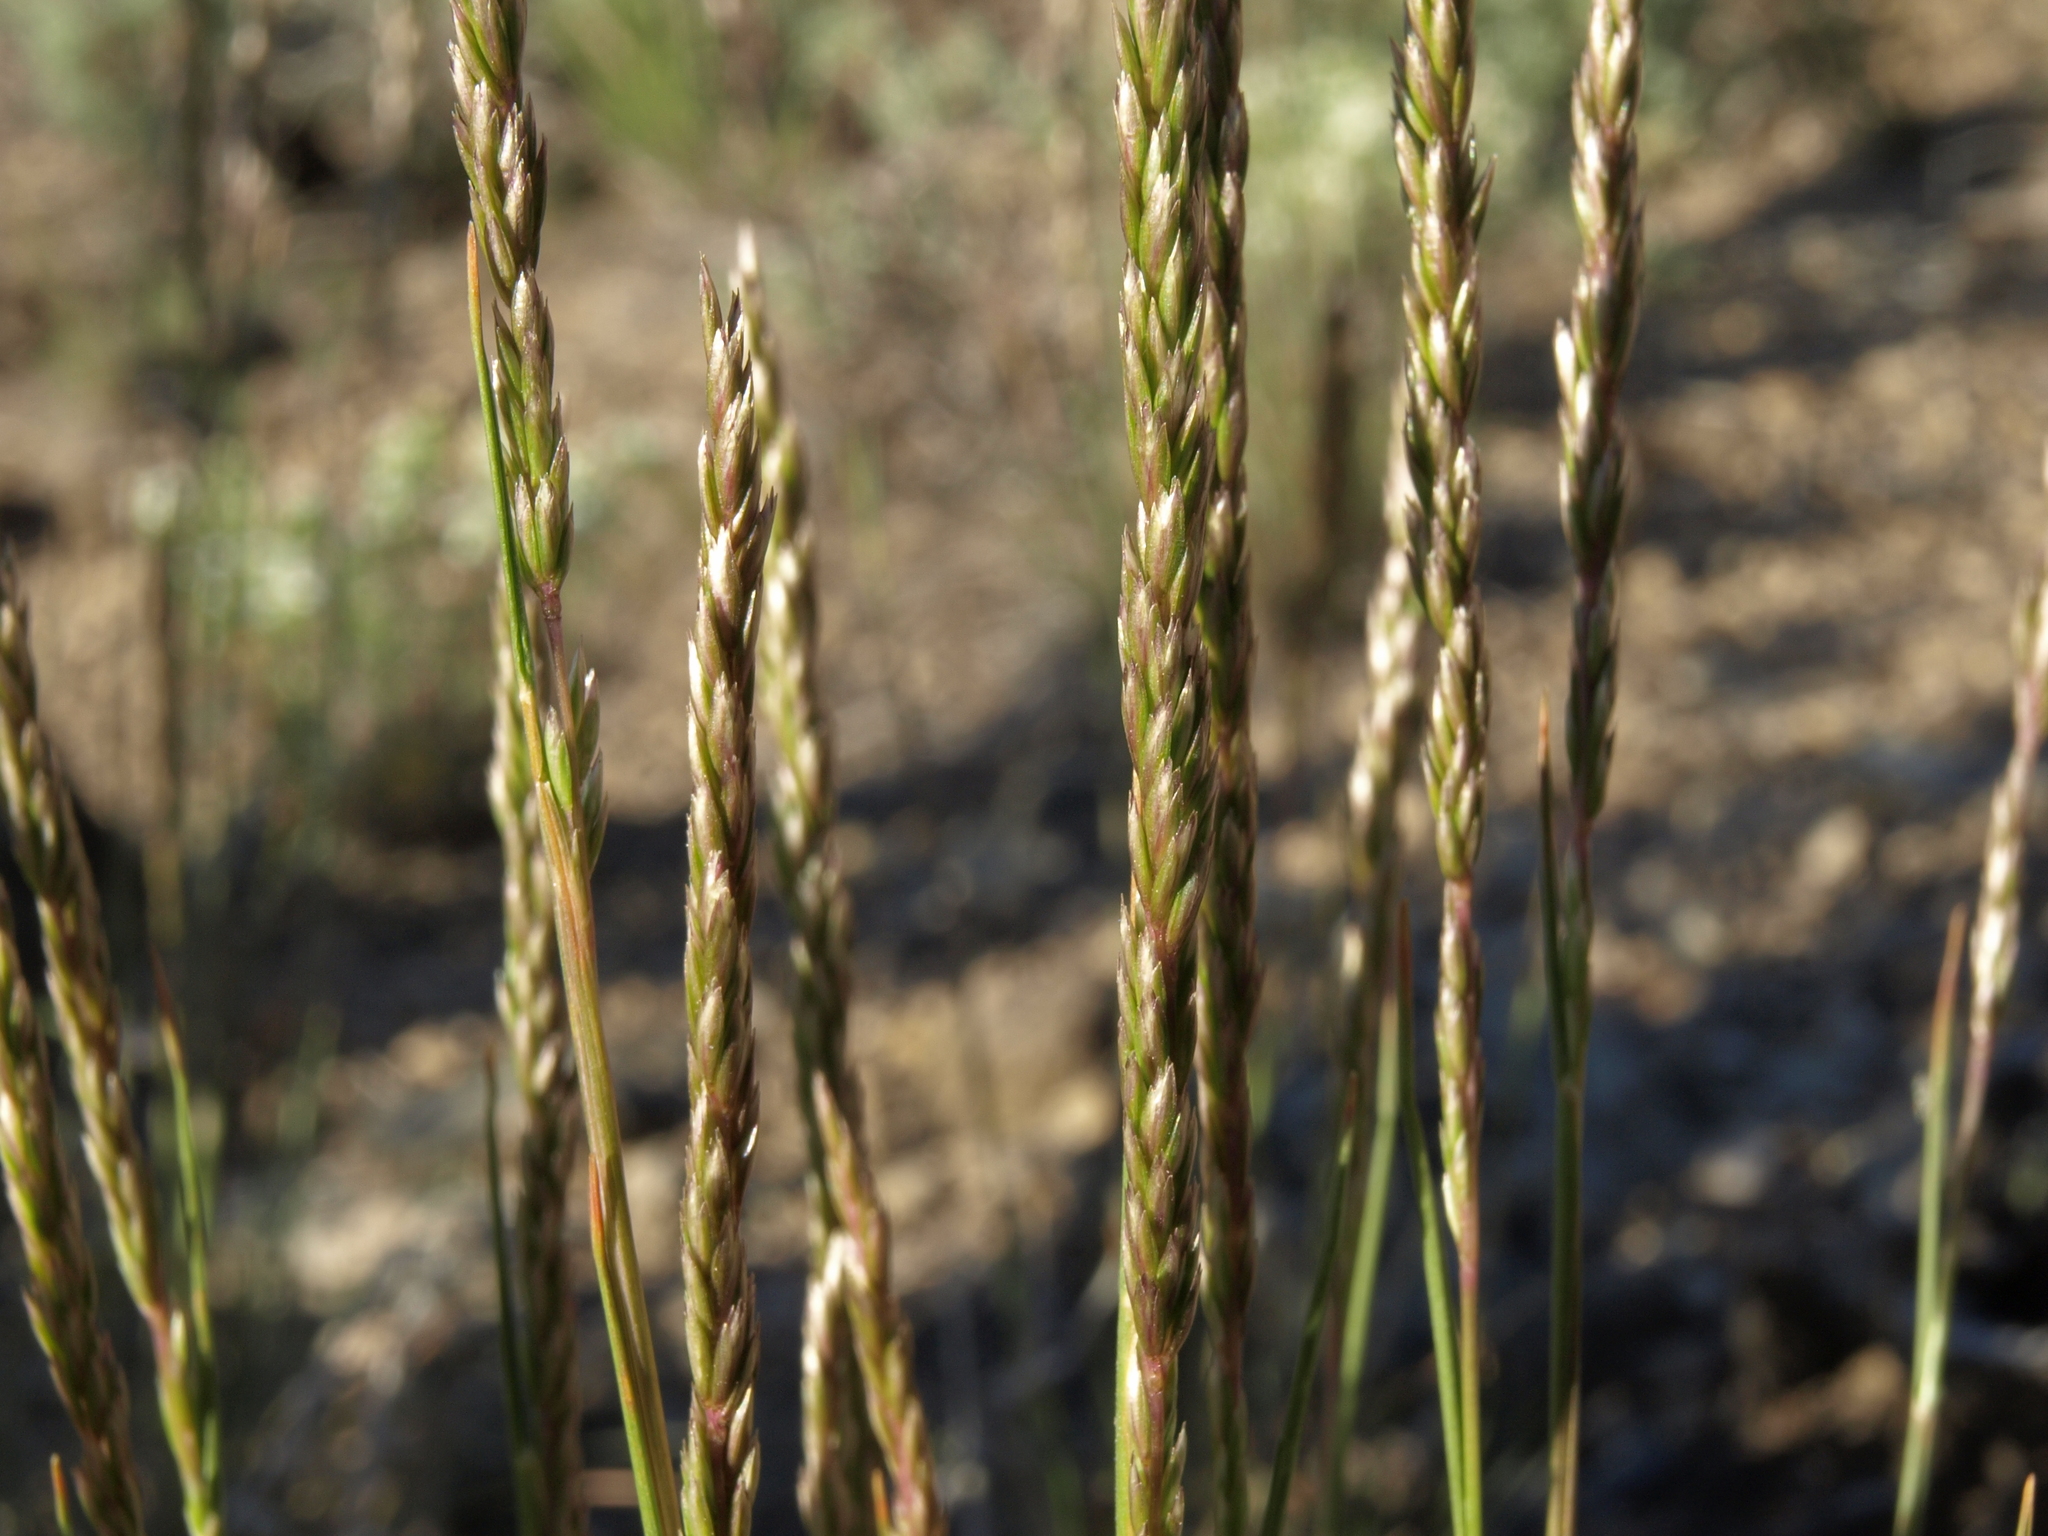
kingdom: Plantae
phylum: Tracheophyta
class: Liliopsida
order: Poales
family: Poaceae
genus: Koeleria
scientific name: Koeleria macrantha
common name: Crested hair-grass
